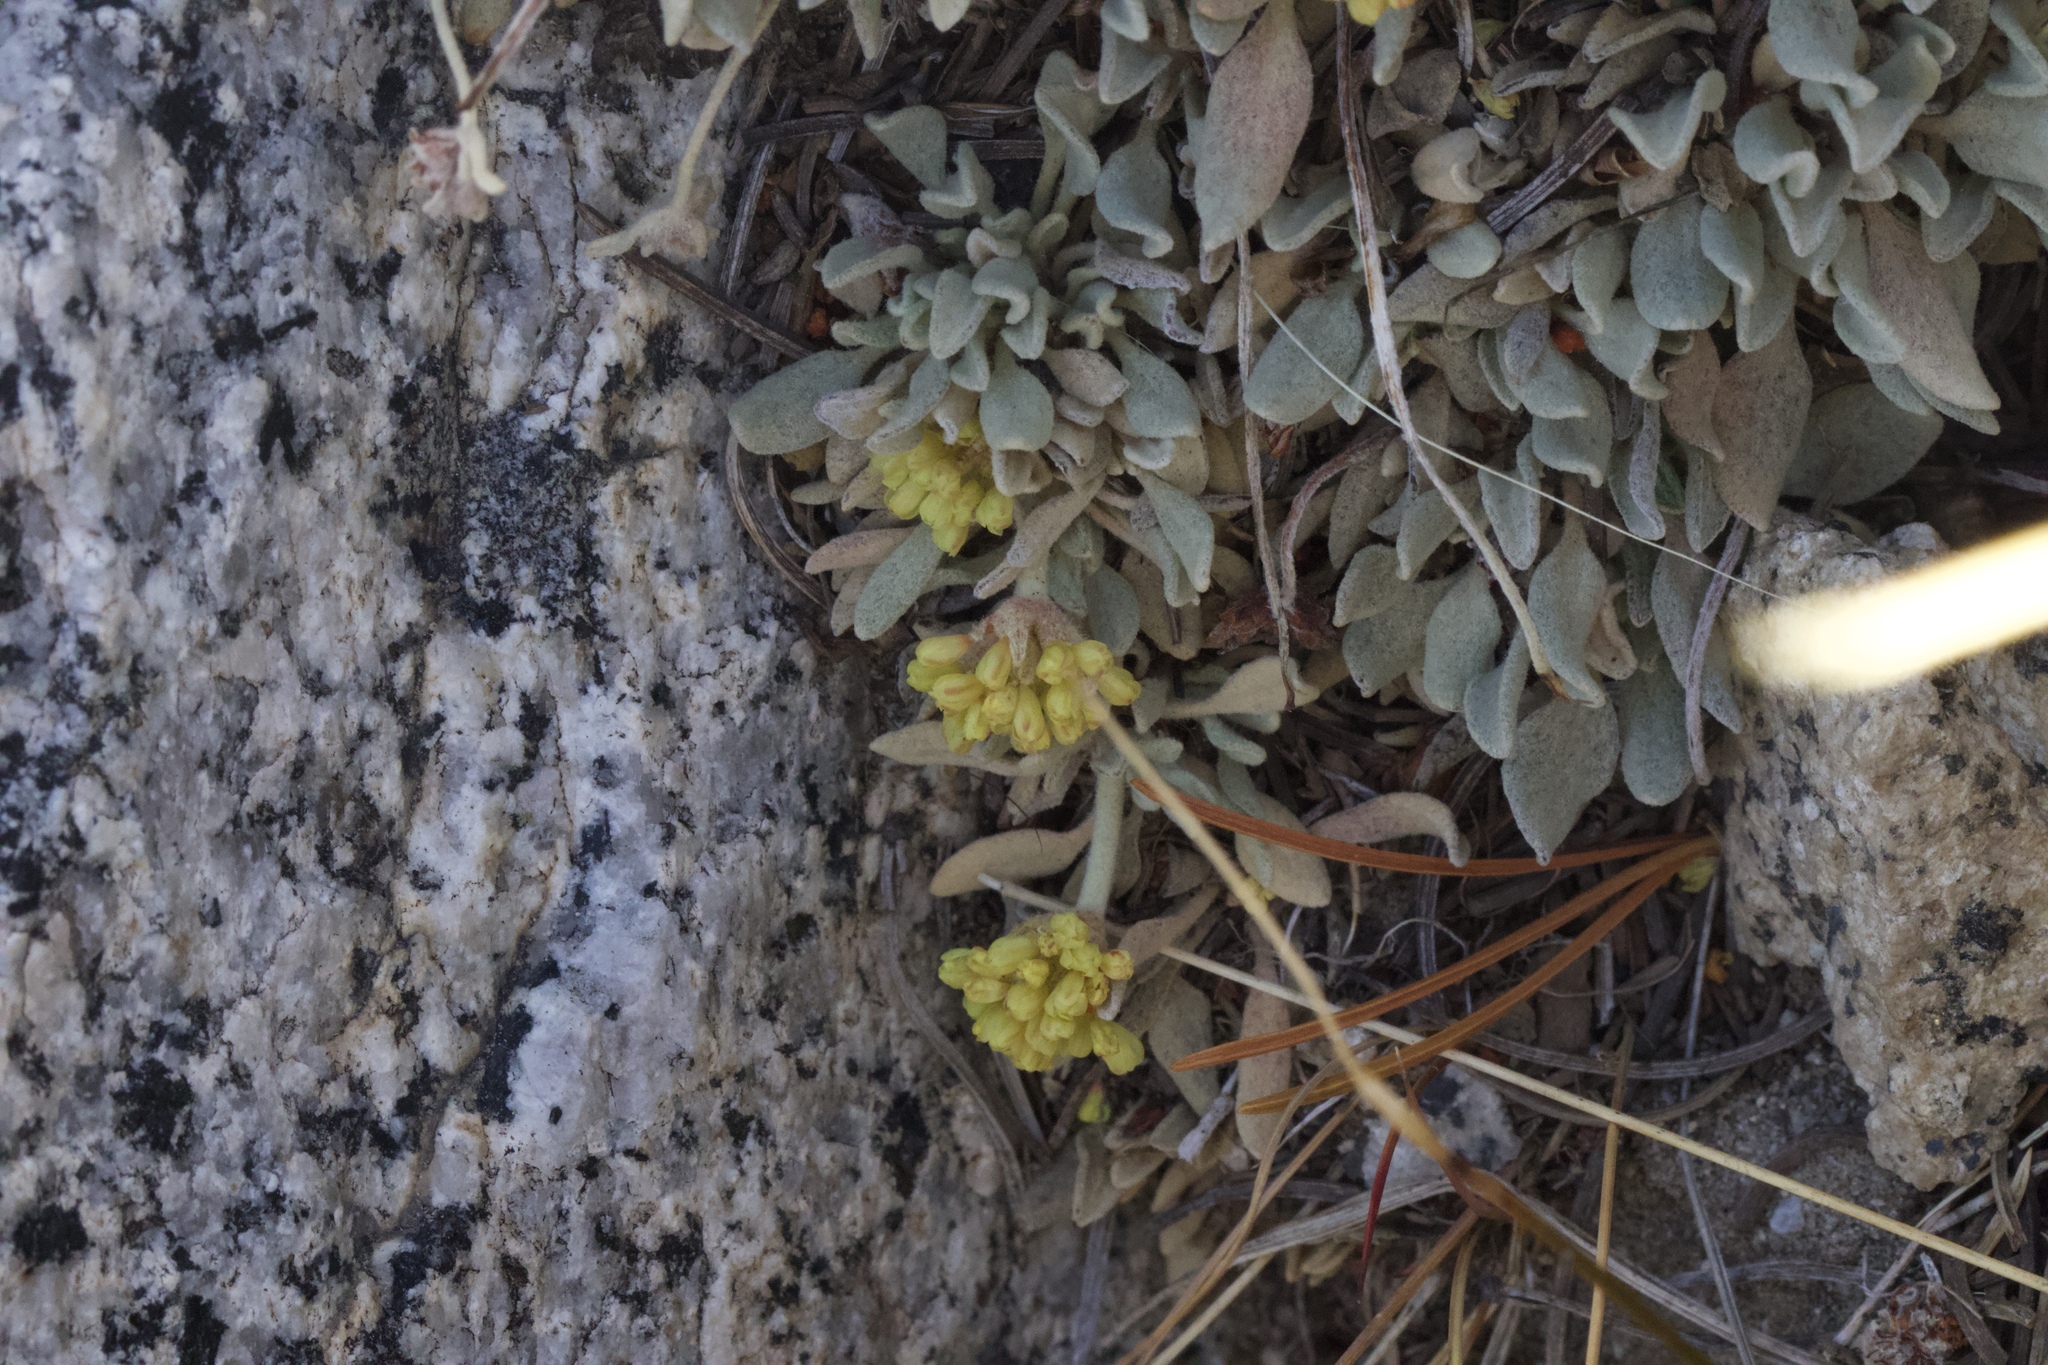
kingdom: Plantae
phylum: Tracheophyta
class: Magnoliopsida
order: Caryophyllales
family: Polygonaceae
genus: Eriogonum
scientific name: Eriogonum incanum
